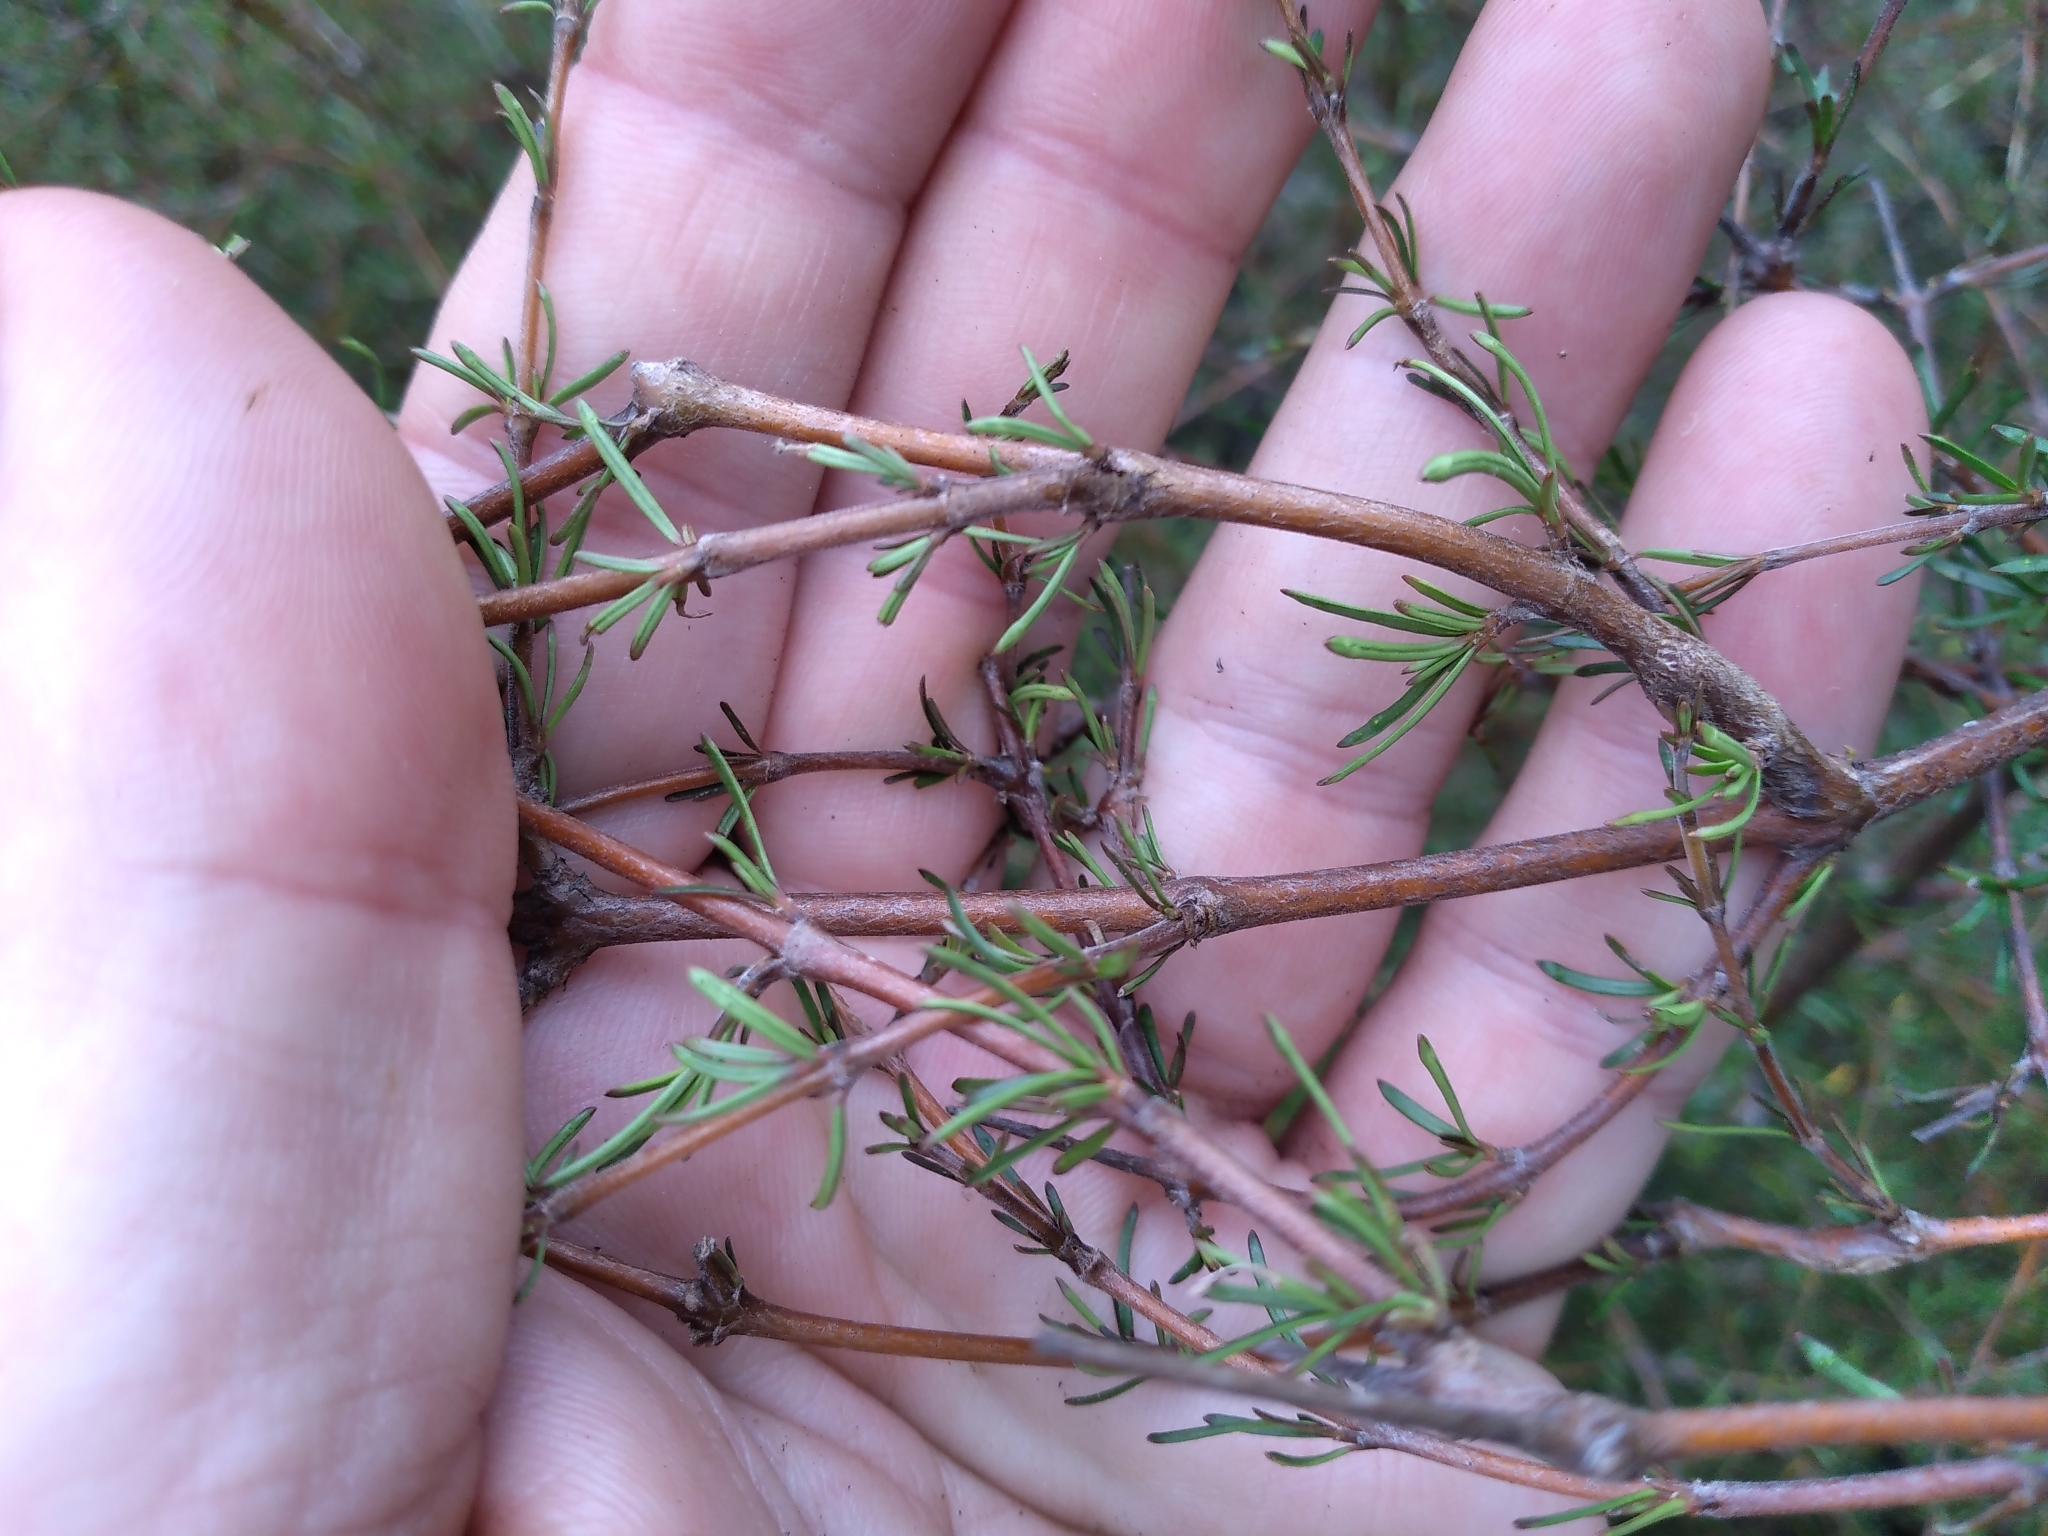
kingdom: Plantae
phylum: Tracheophyta
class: Magnoliopsida
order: Gentianales
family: Rubiaceae
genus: Coprosma
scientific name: Coprosma rugosa
